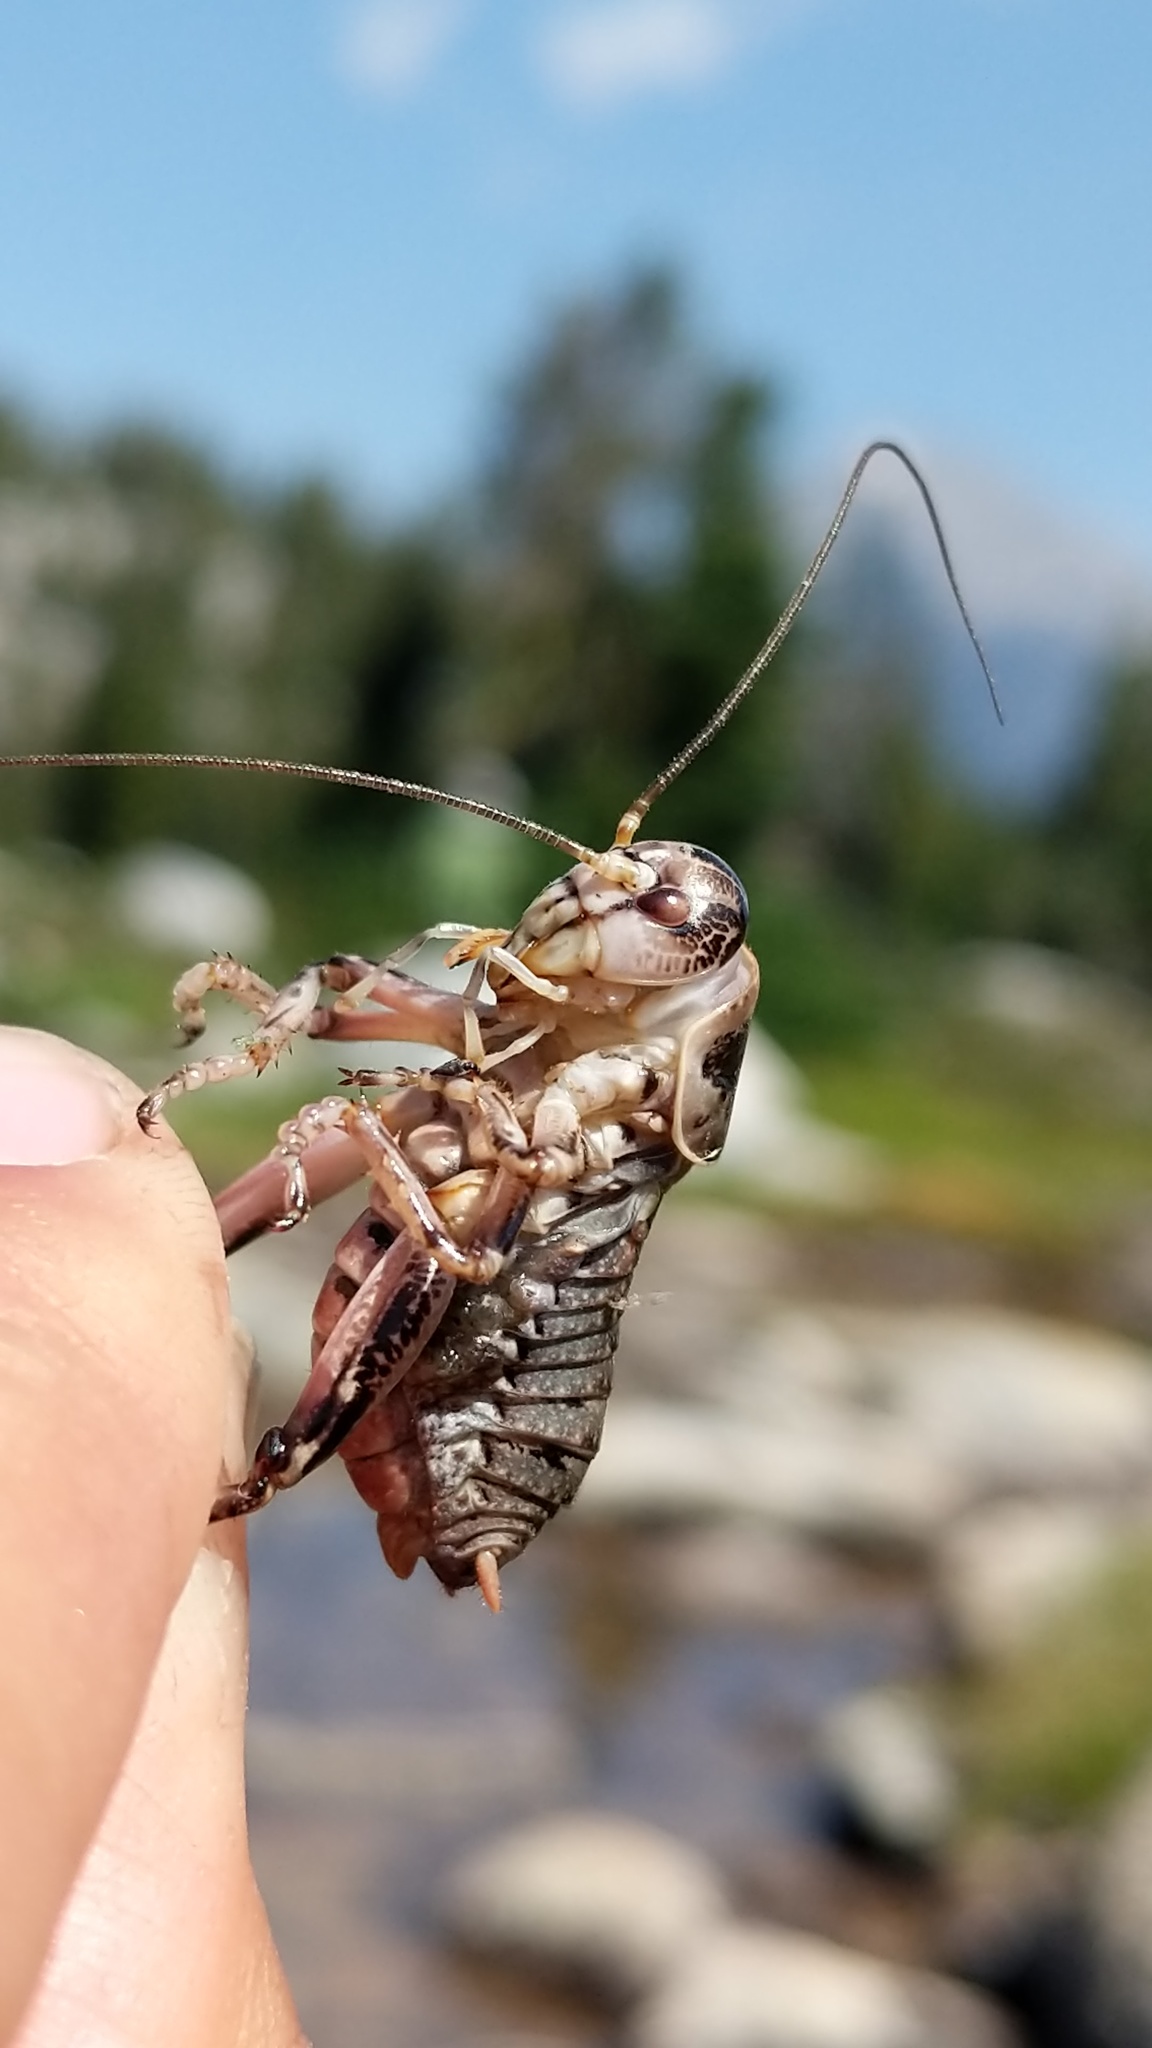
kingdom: Animalia
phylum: Arthropoda
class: Insecta
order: Orthoptera
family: Prophalangopsidae
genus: Cyphoderris
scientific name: Cyphoderris monstrosa
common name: Great grig
